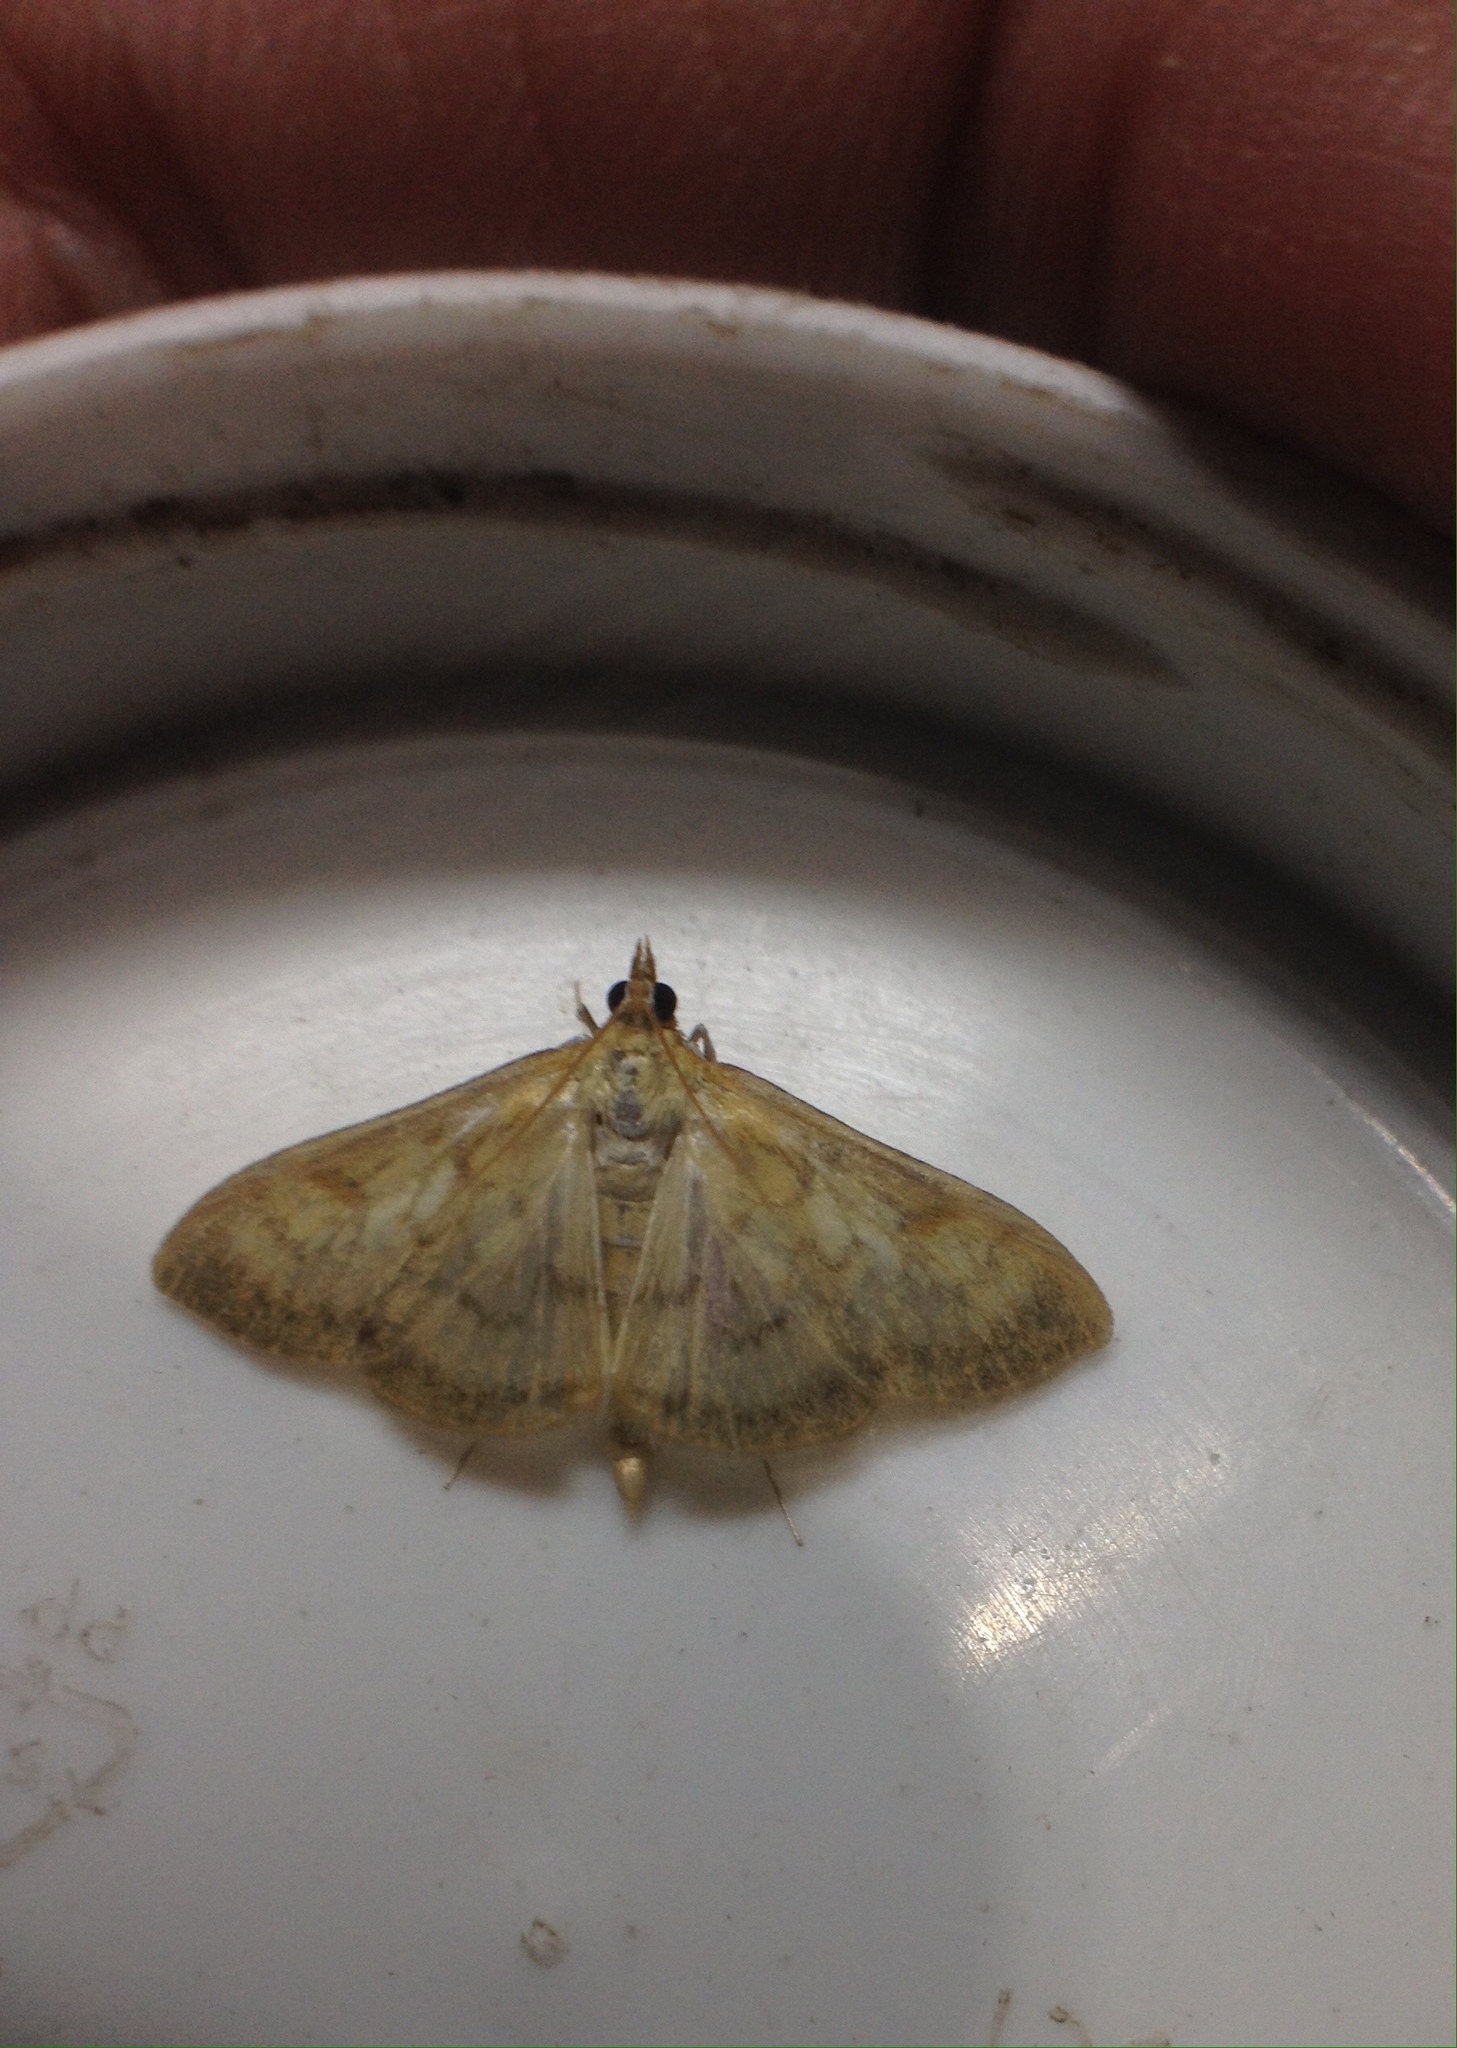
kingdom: Animalia
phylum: Arthropoda
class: Insecta
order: Lepidoptera
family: Crambidae
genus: Paratalanta
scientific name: Paratalanta pandalis
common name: Bordered pearl
